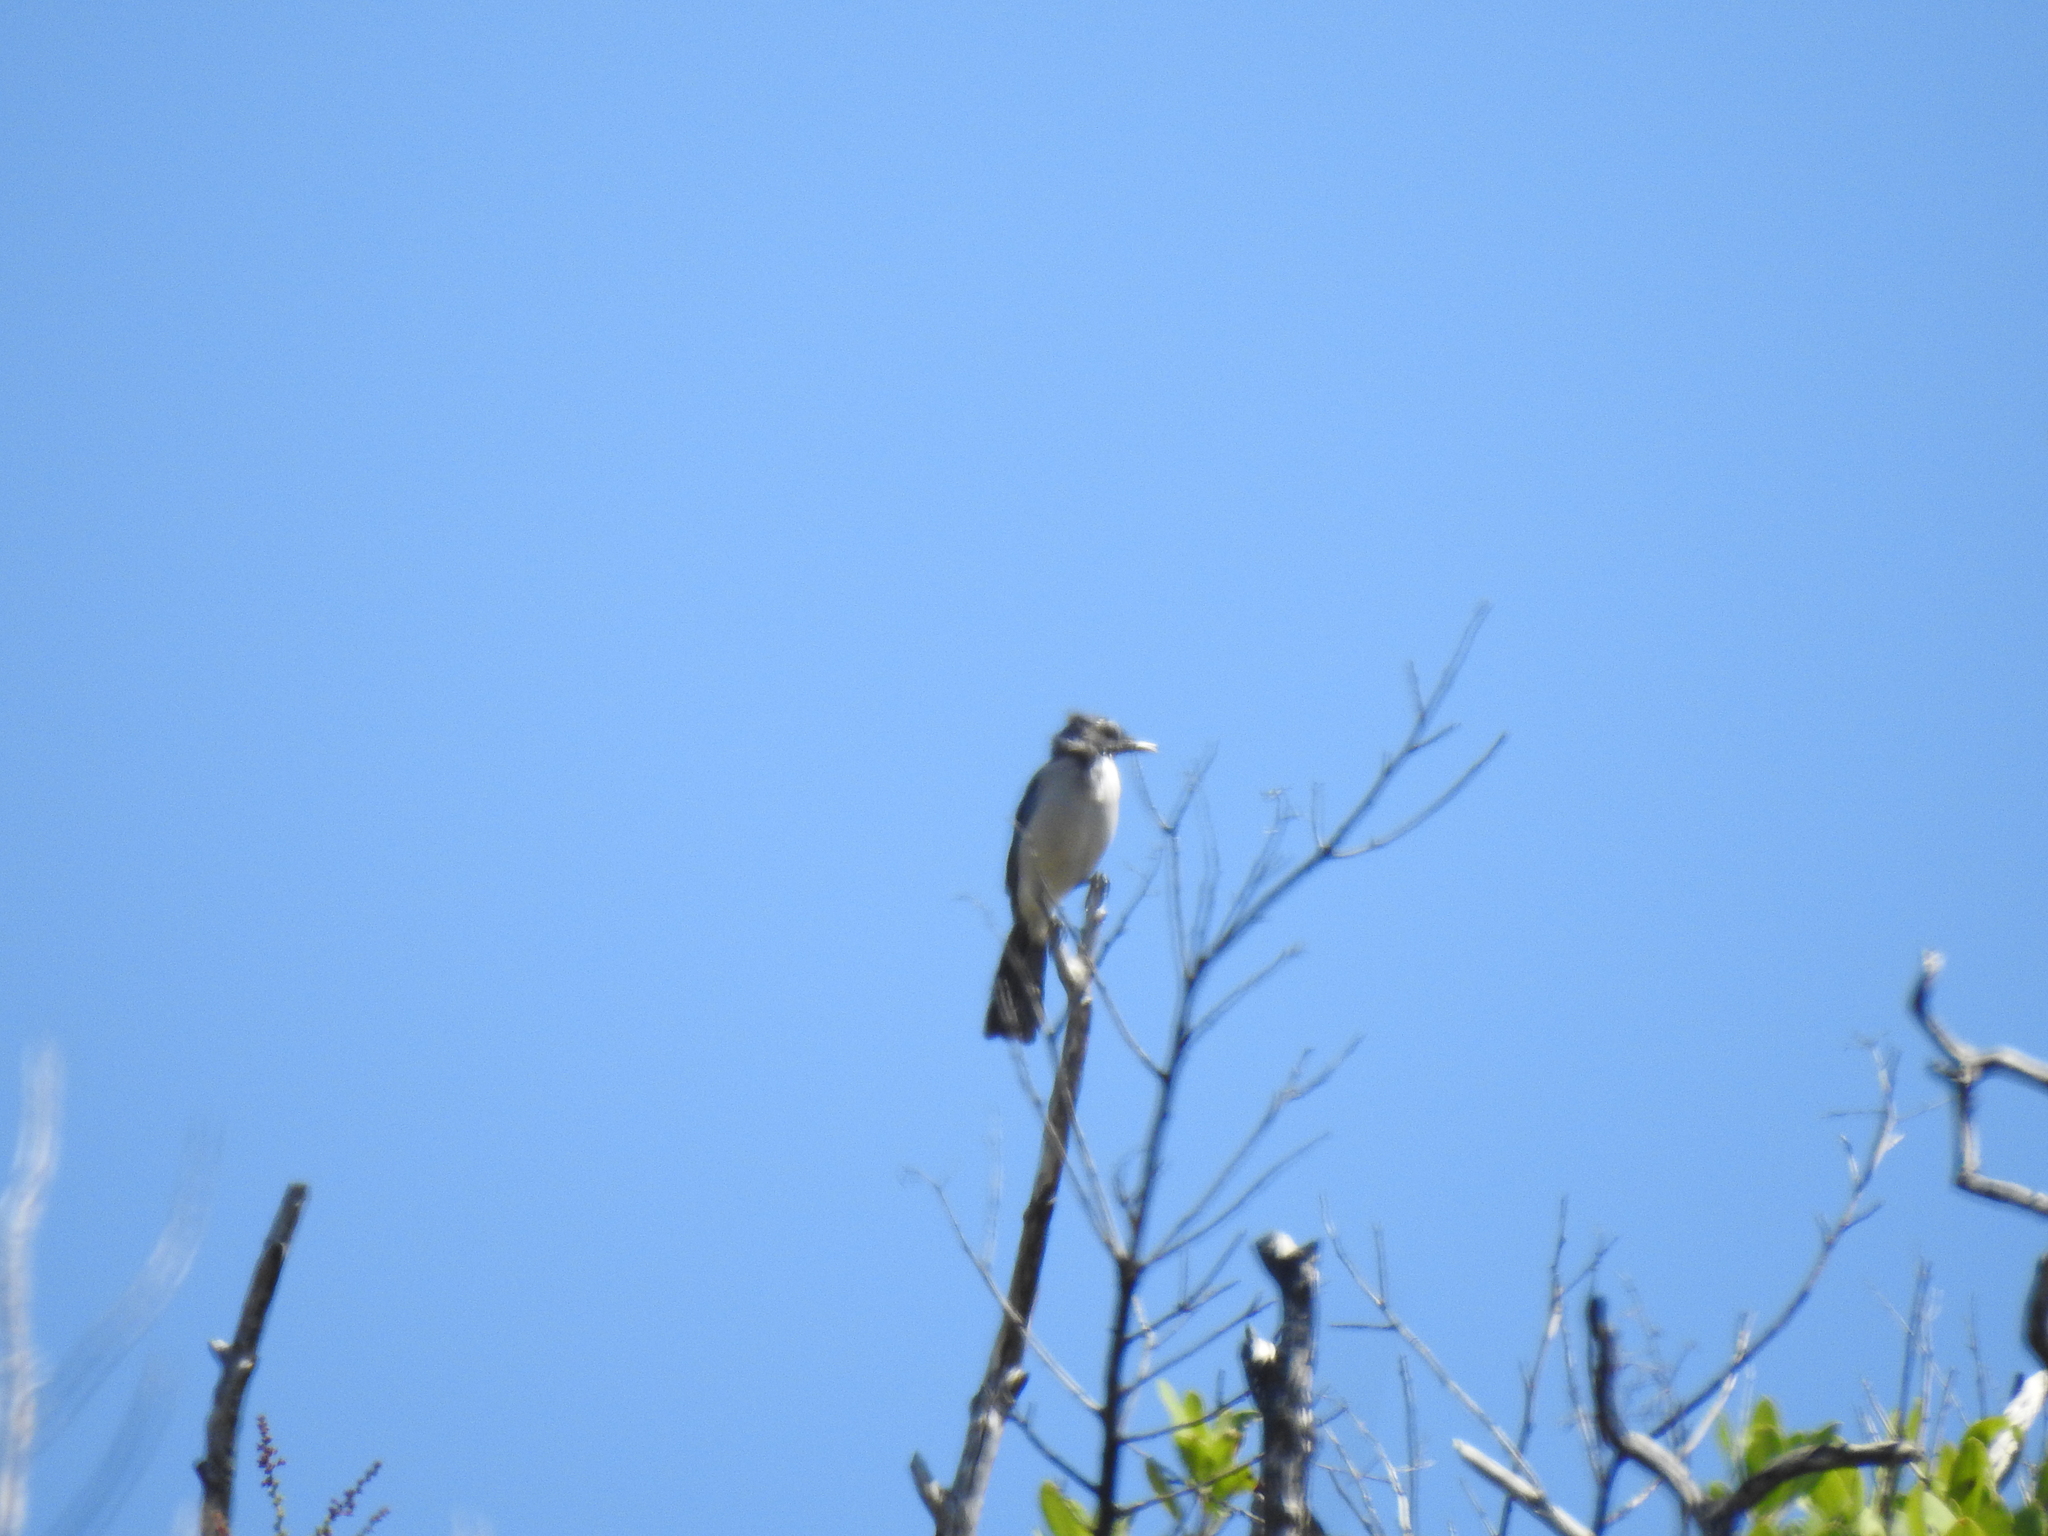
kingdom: Animalia
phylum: Chordata
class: Aves
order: Passeriformes
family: Corvidae
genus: Aphelocoma
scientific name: Aphelocoma californica
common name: California scrub-jay
